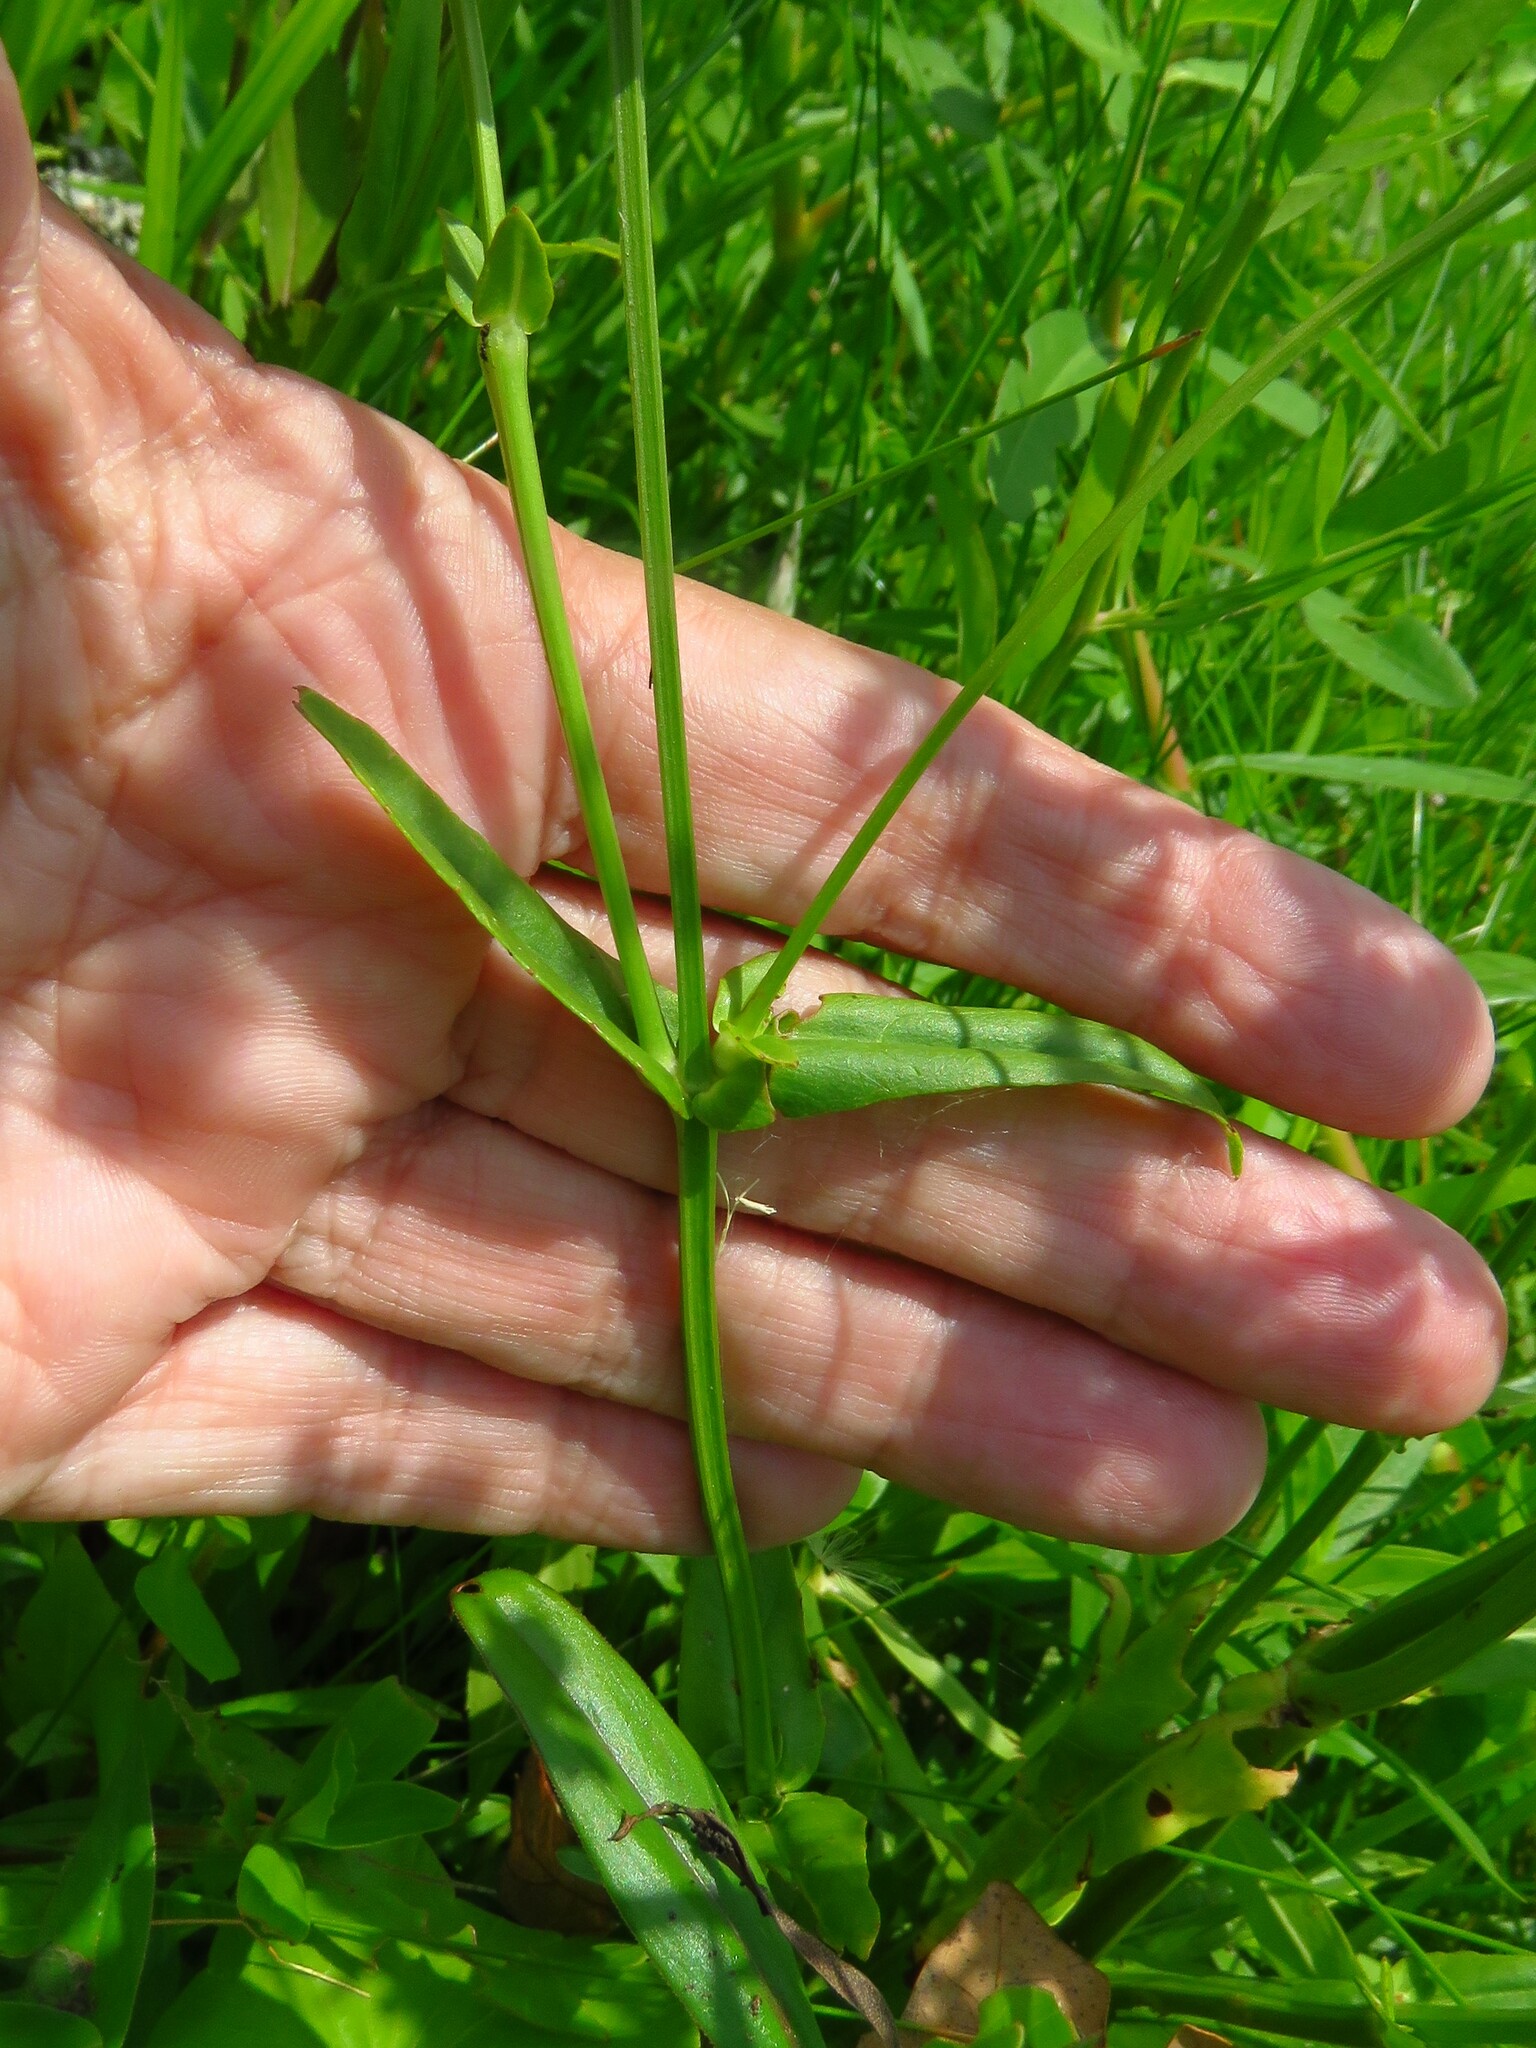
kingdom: Plantae
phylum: Tracheophyta
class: Magnoliopsida
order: Lamiales
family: Lamiaceae
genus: Physostegia
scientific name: Physostegia virginiana
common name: Obedient-plant
